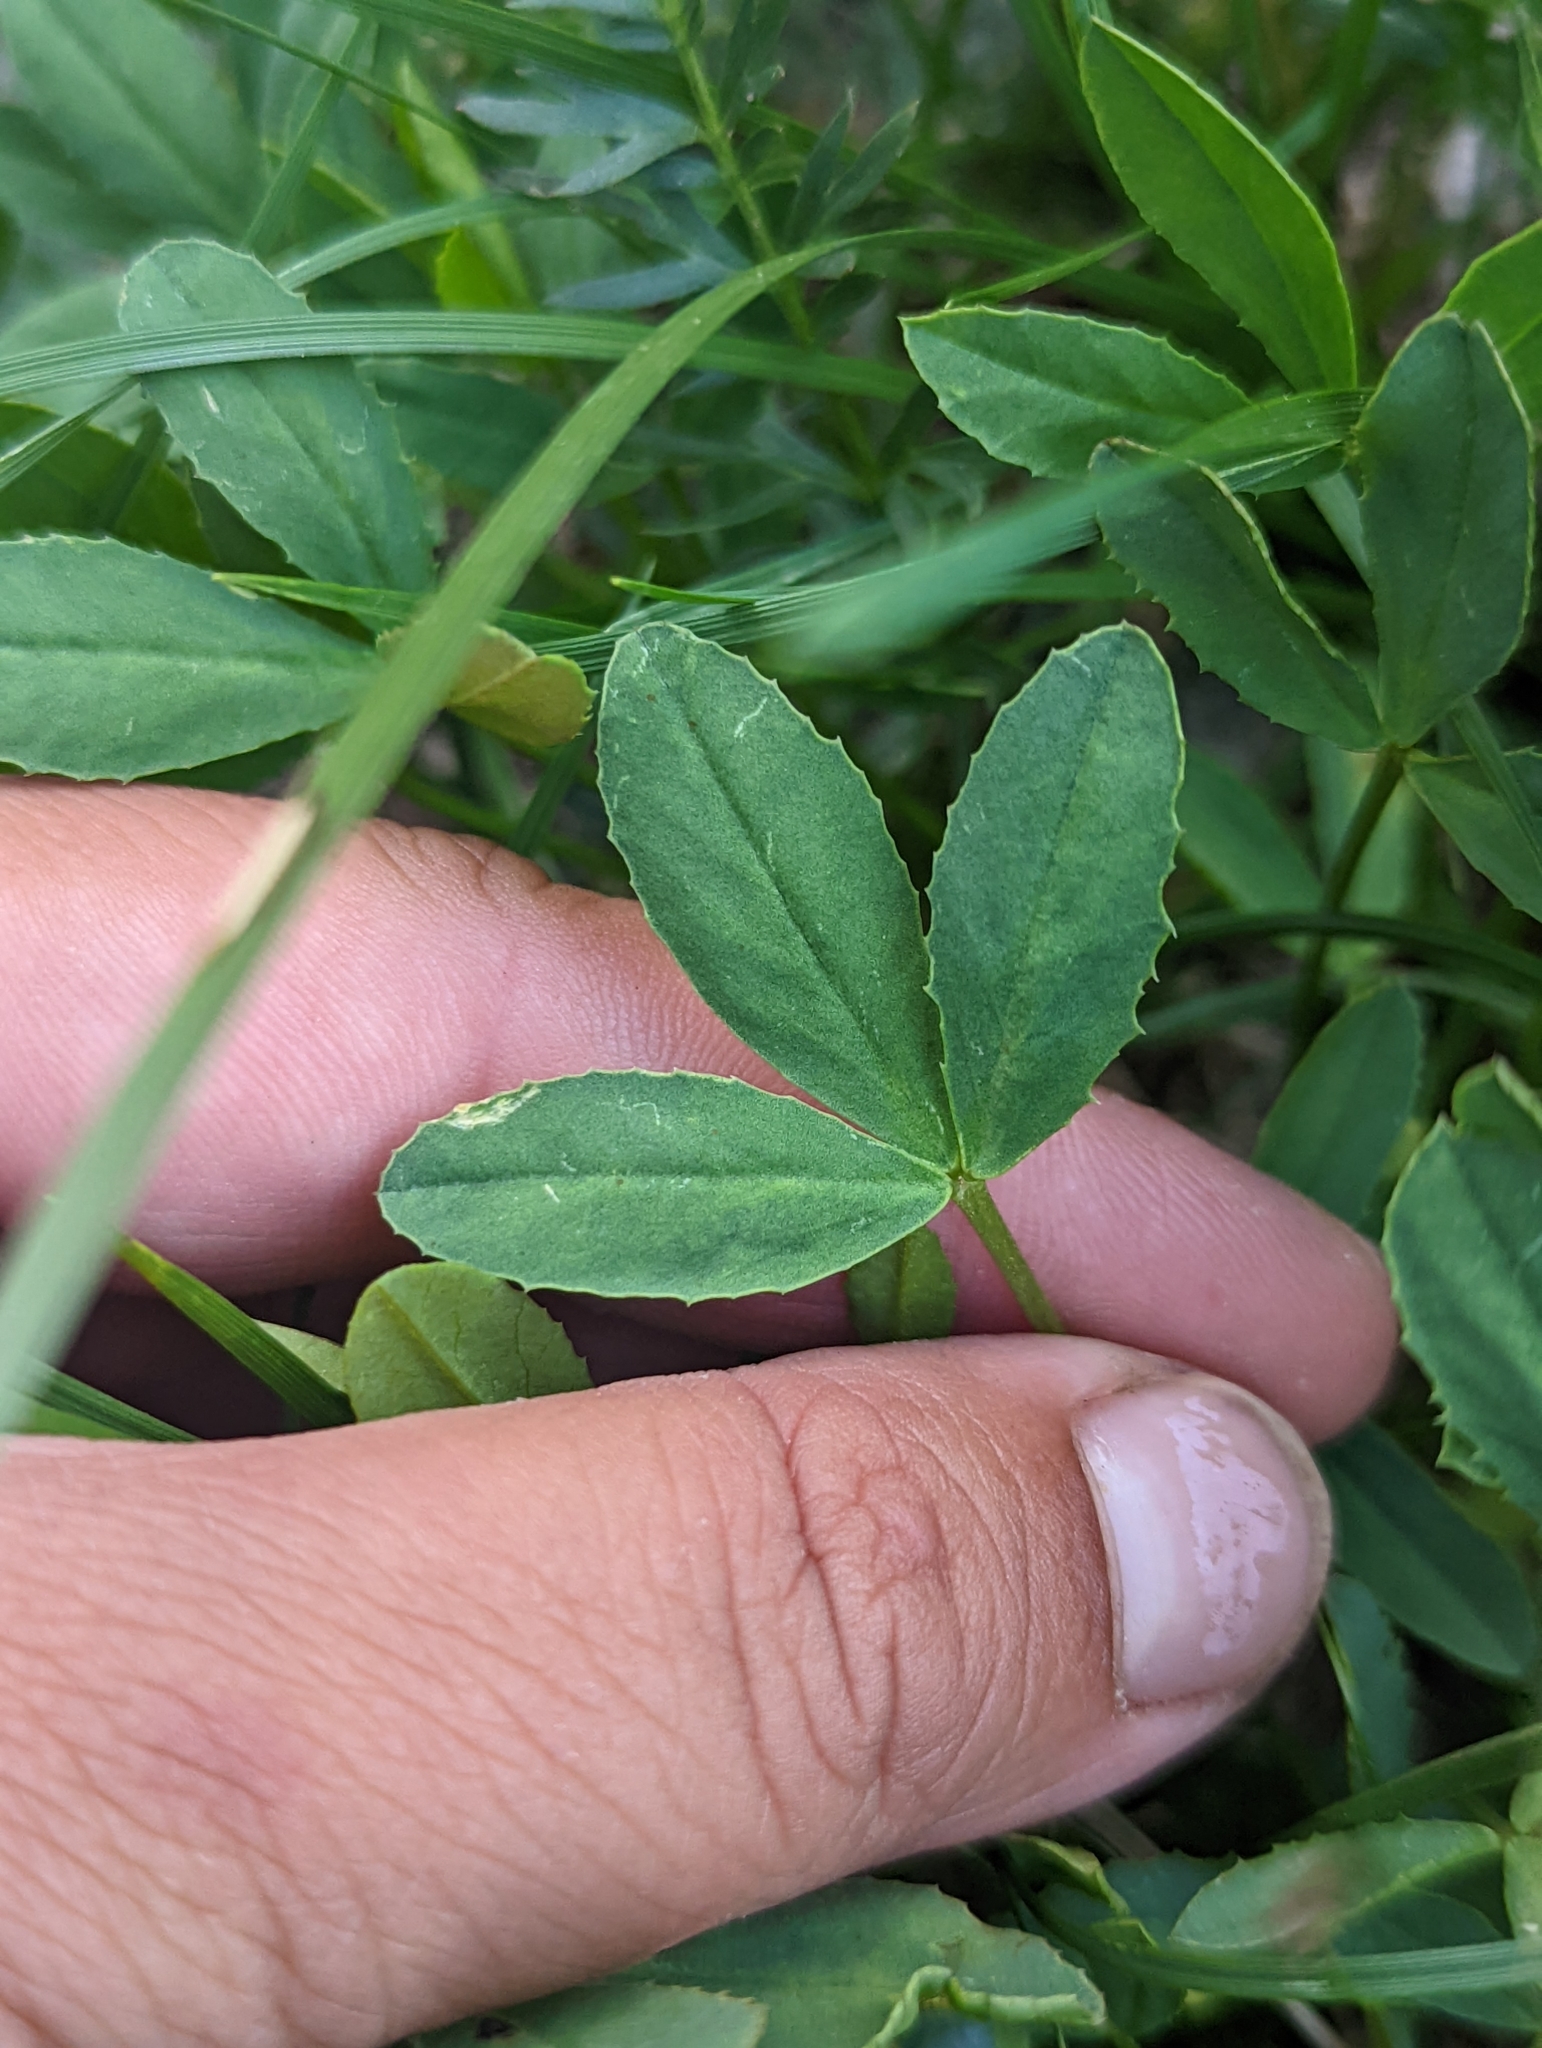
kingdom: Plantae
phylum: Tracheophyta
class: Magnoliopsida
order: Fabales
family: Fabaceae
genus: Trifolium
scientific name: Trifolium parryi
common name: Parry's clover
